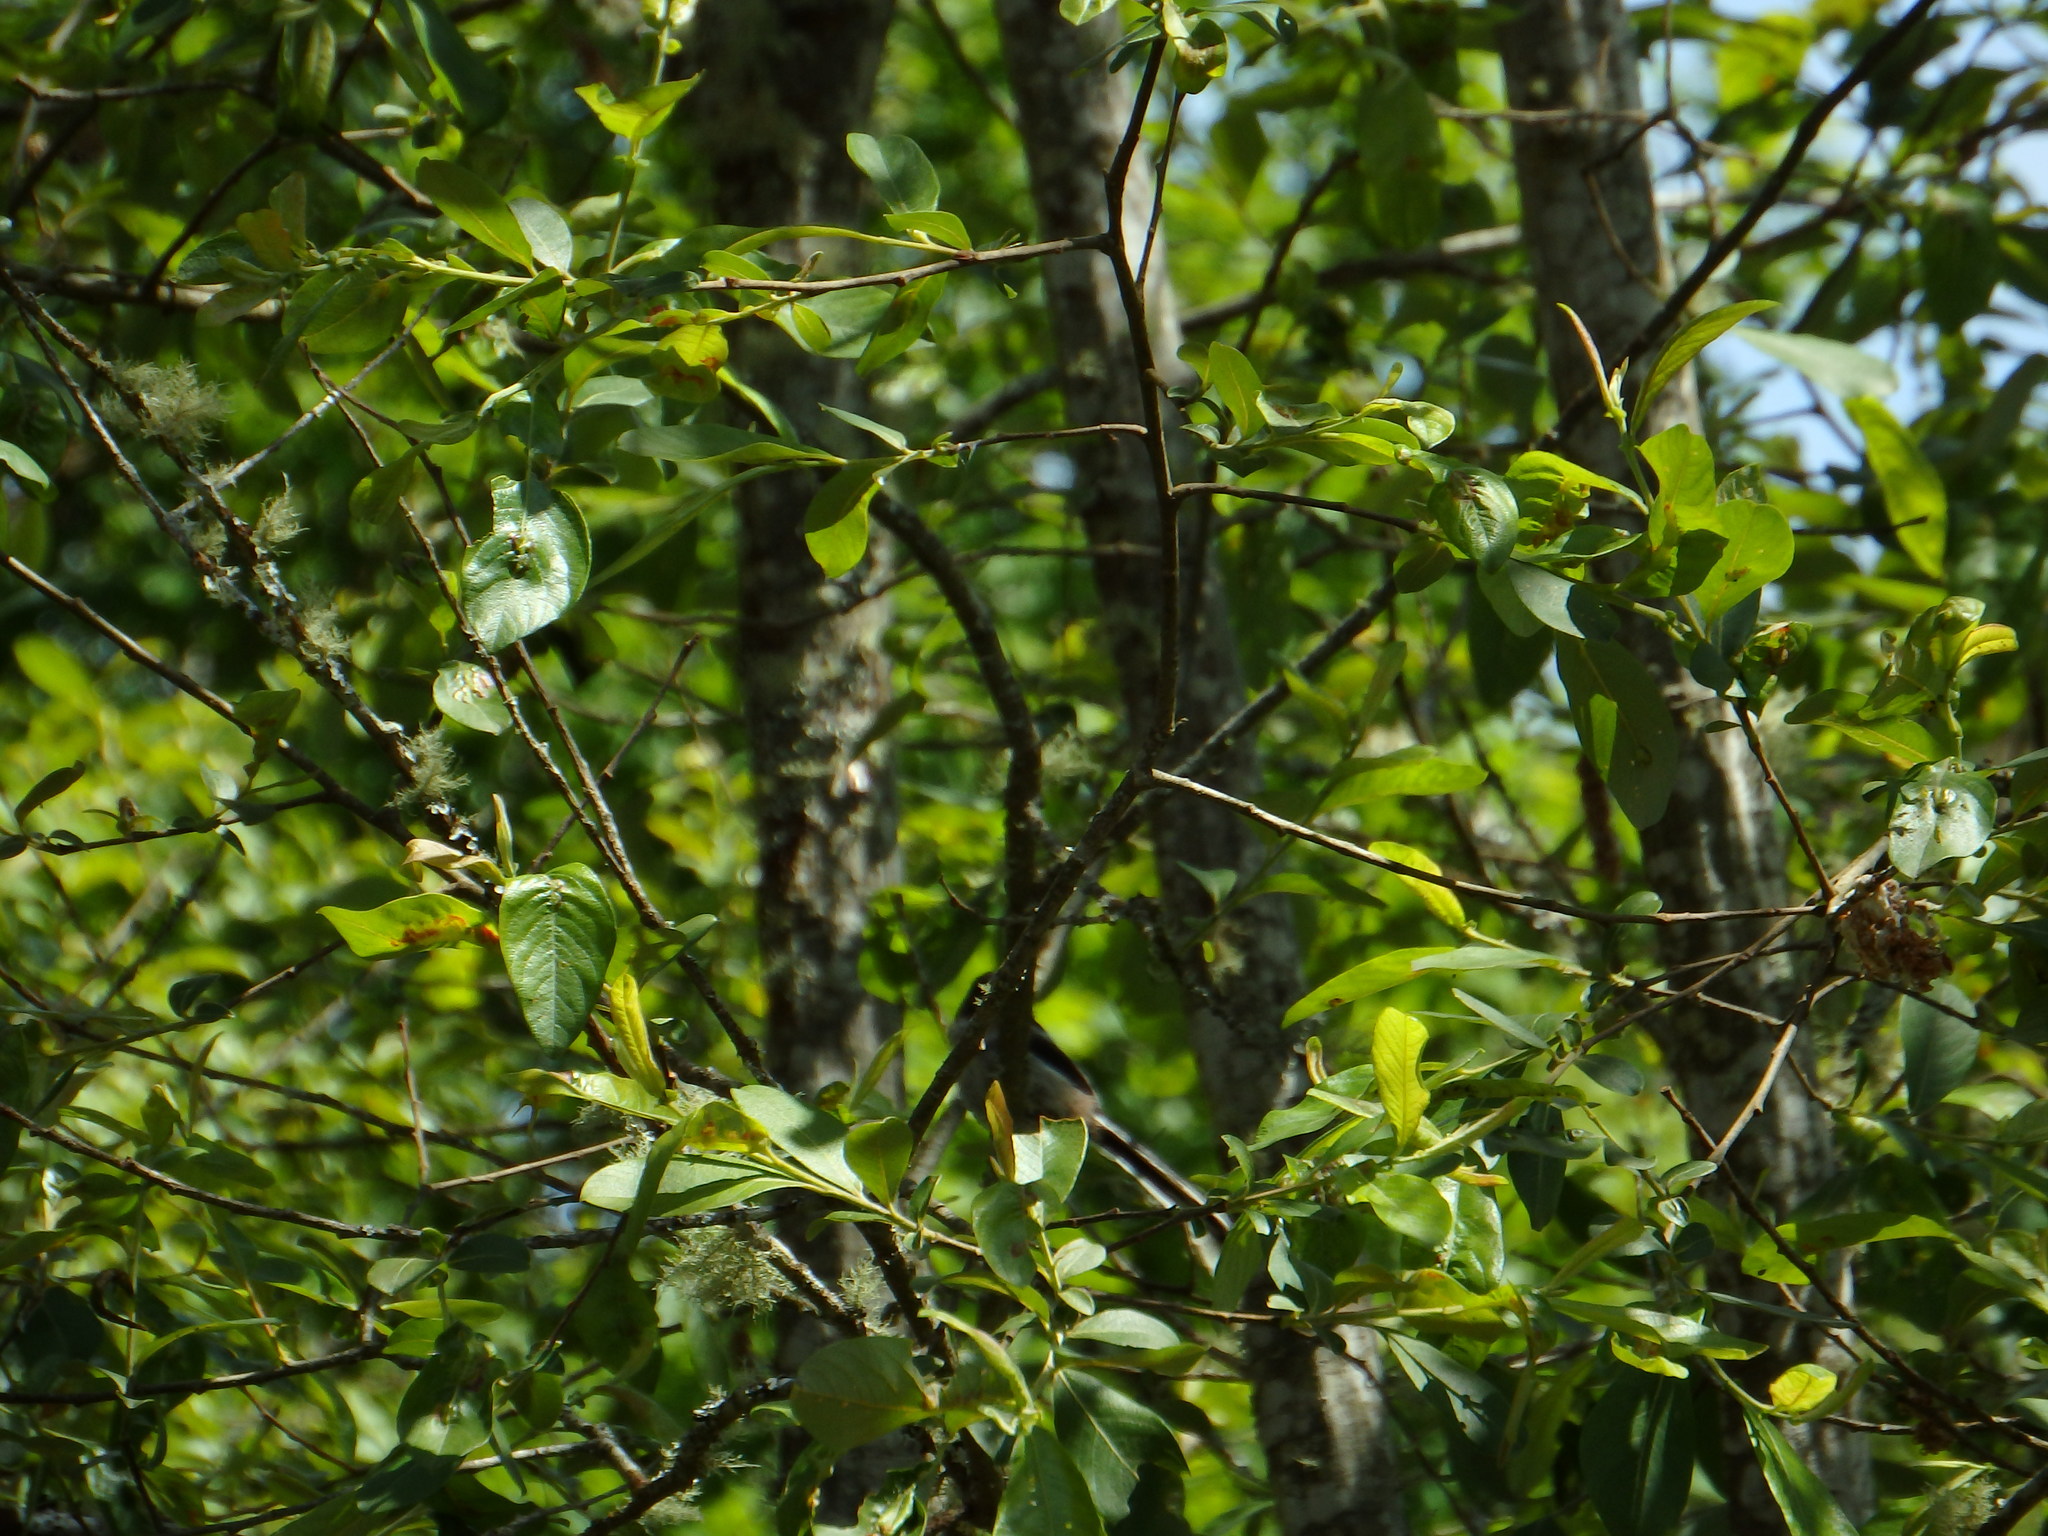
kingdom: Animalia
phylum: Chordata
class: Aves
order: Passeriformes
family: Aegithalidae
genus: Aegithalos
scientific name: Aegithalos caudatus
